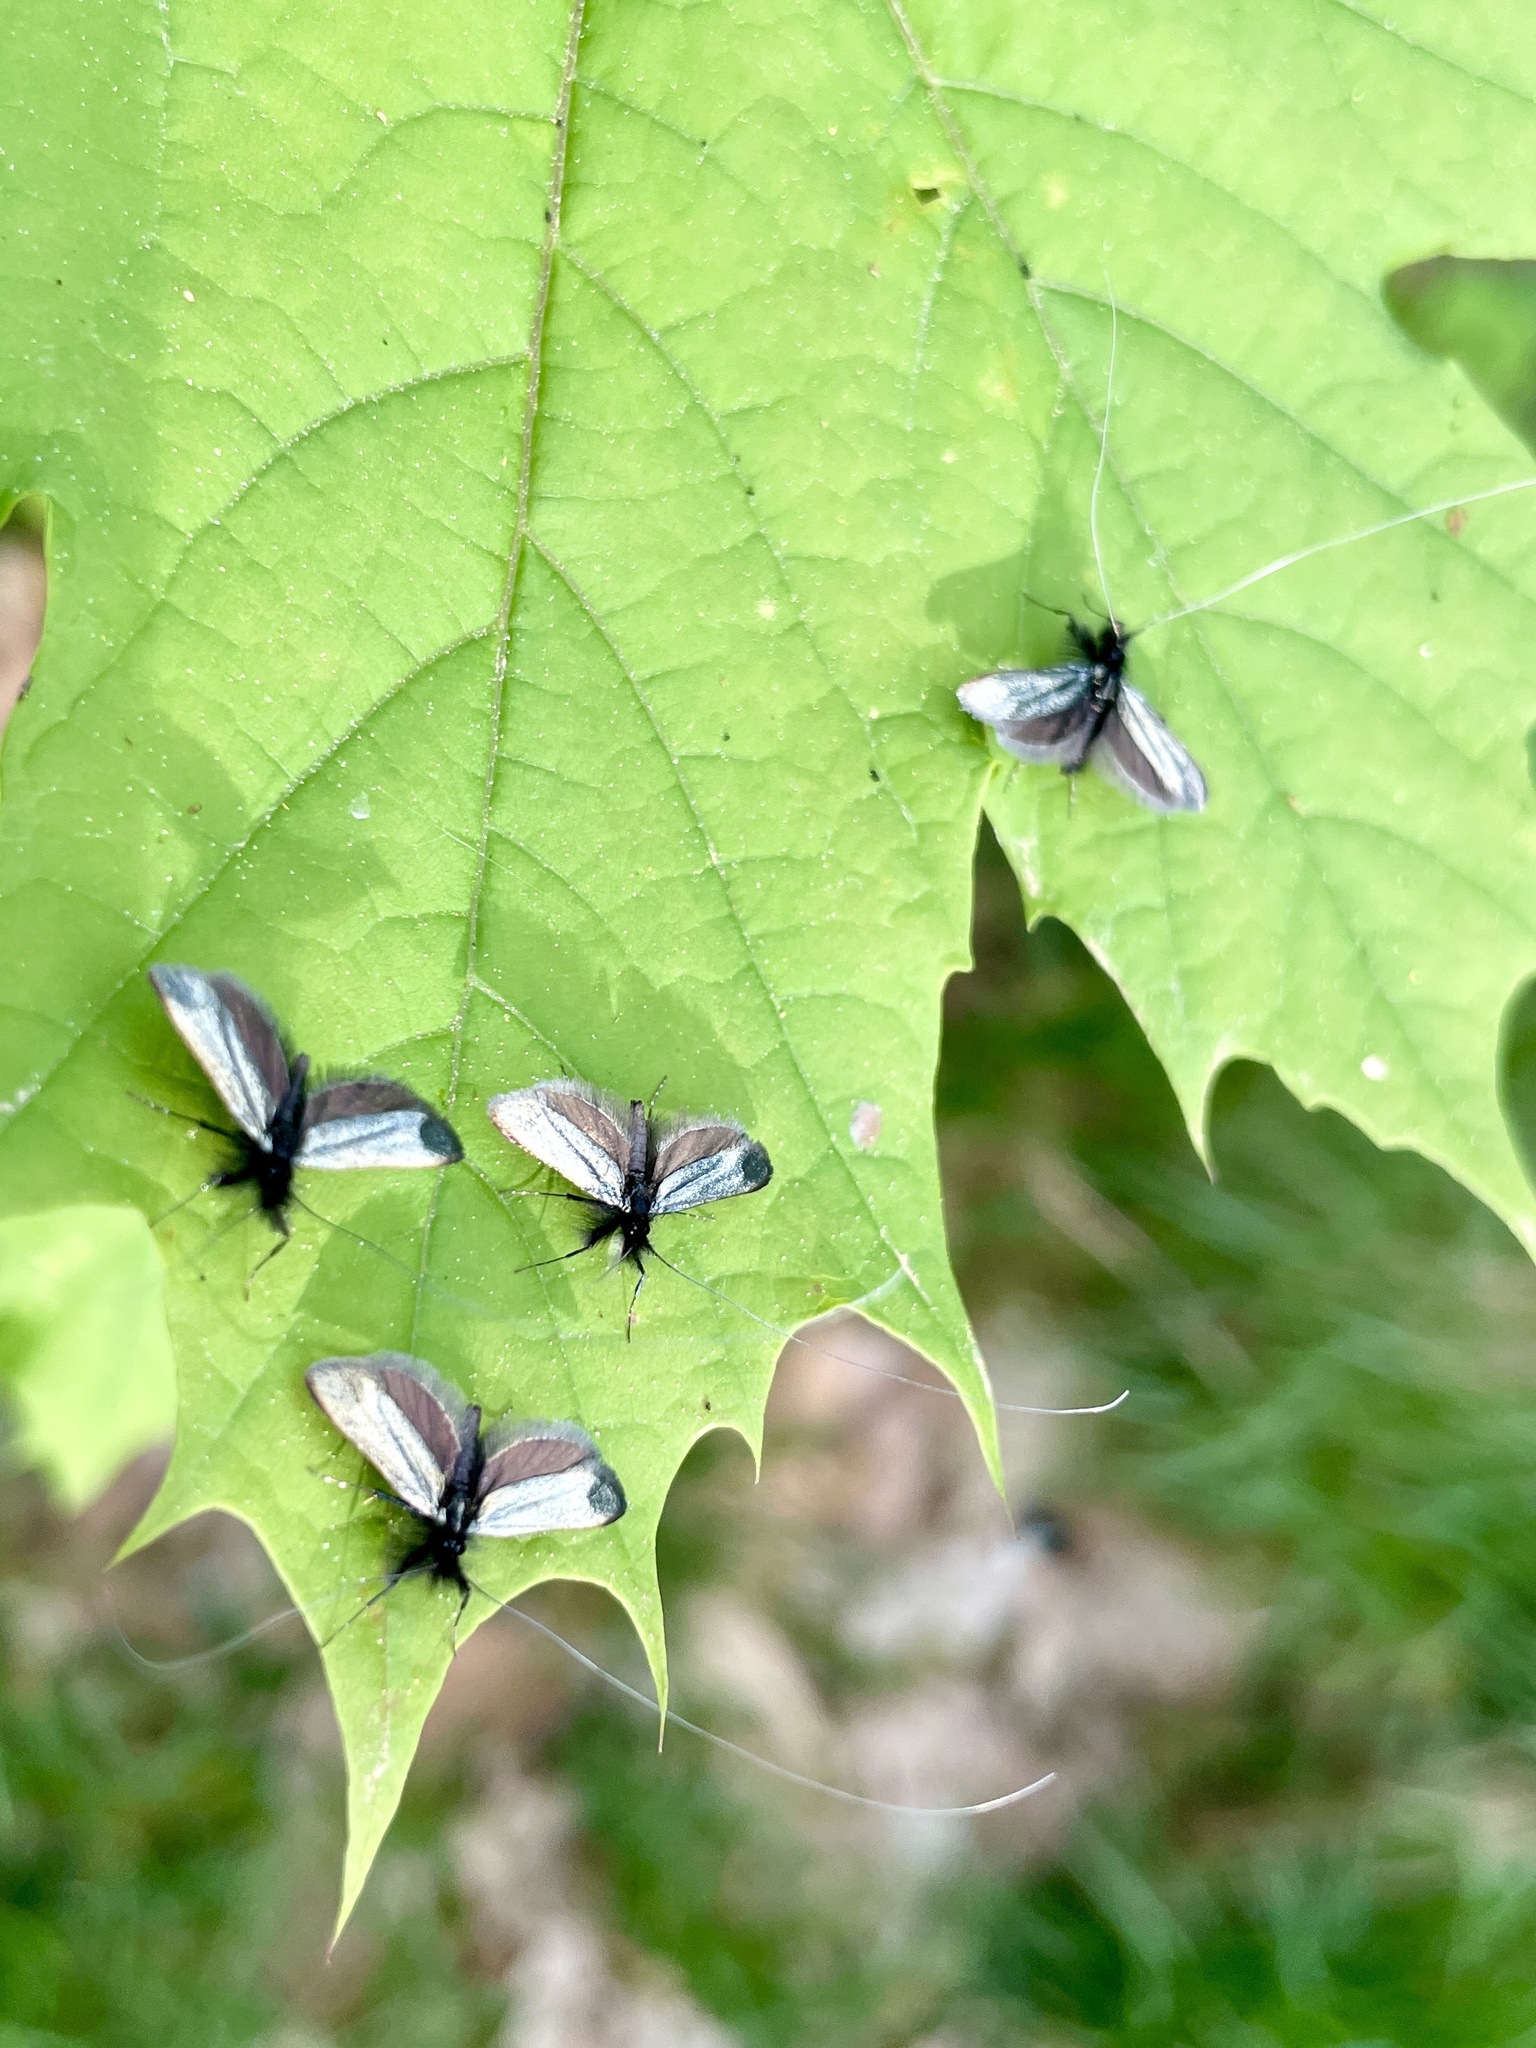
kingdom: Animalia
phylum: Arthropoda
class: Insecta
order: Lepidoptera
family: Adelidae
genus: Adela
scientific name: Adela viridella
